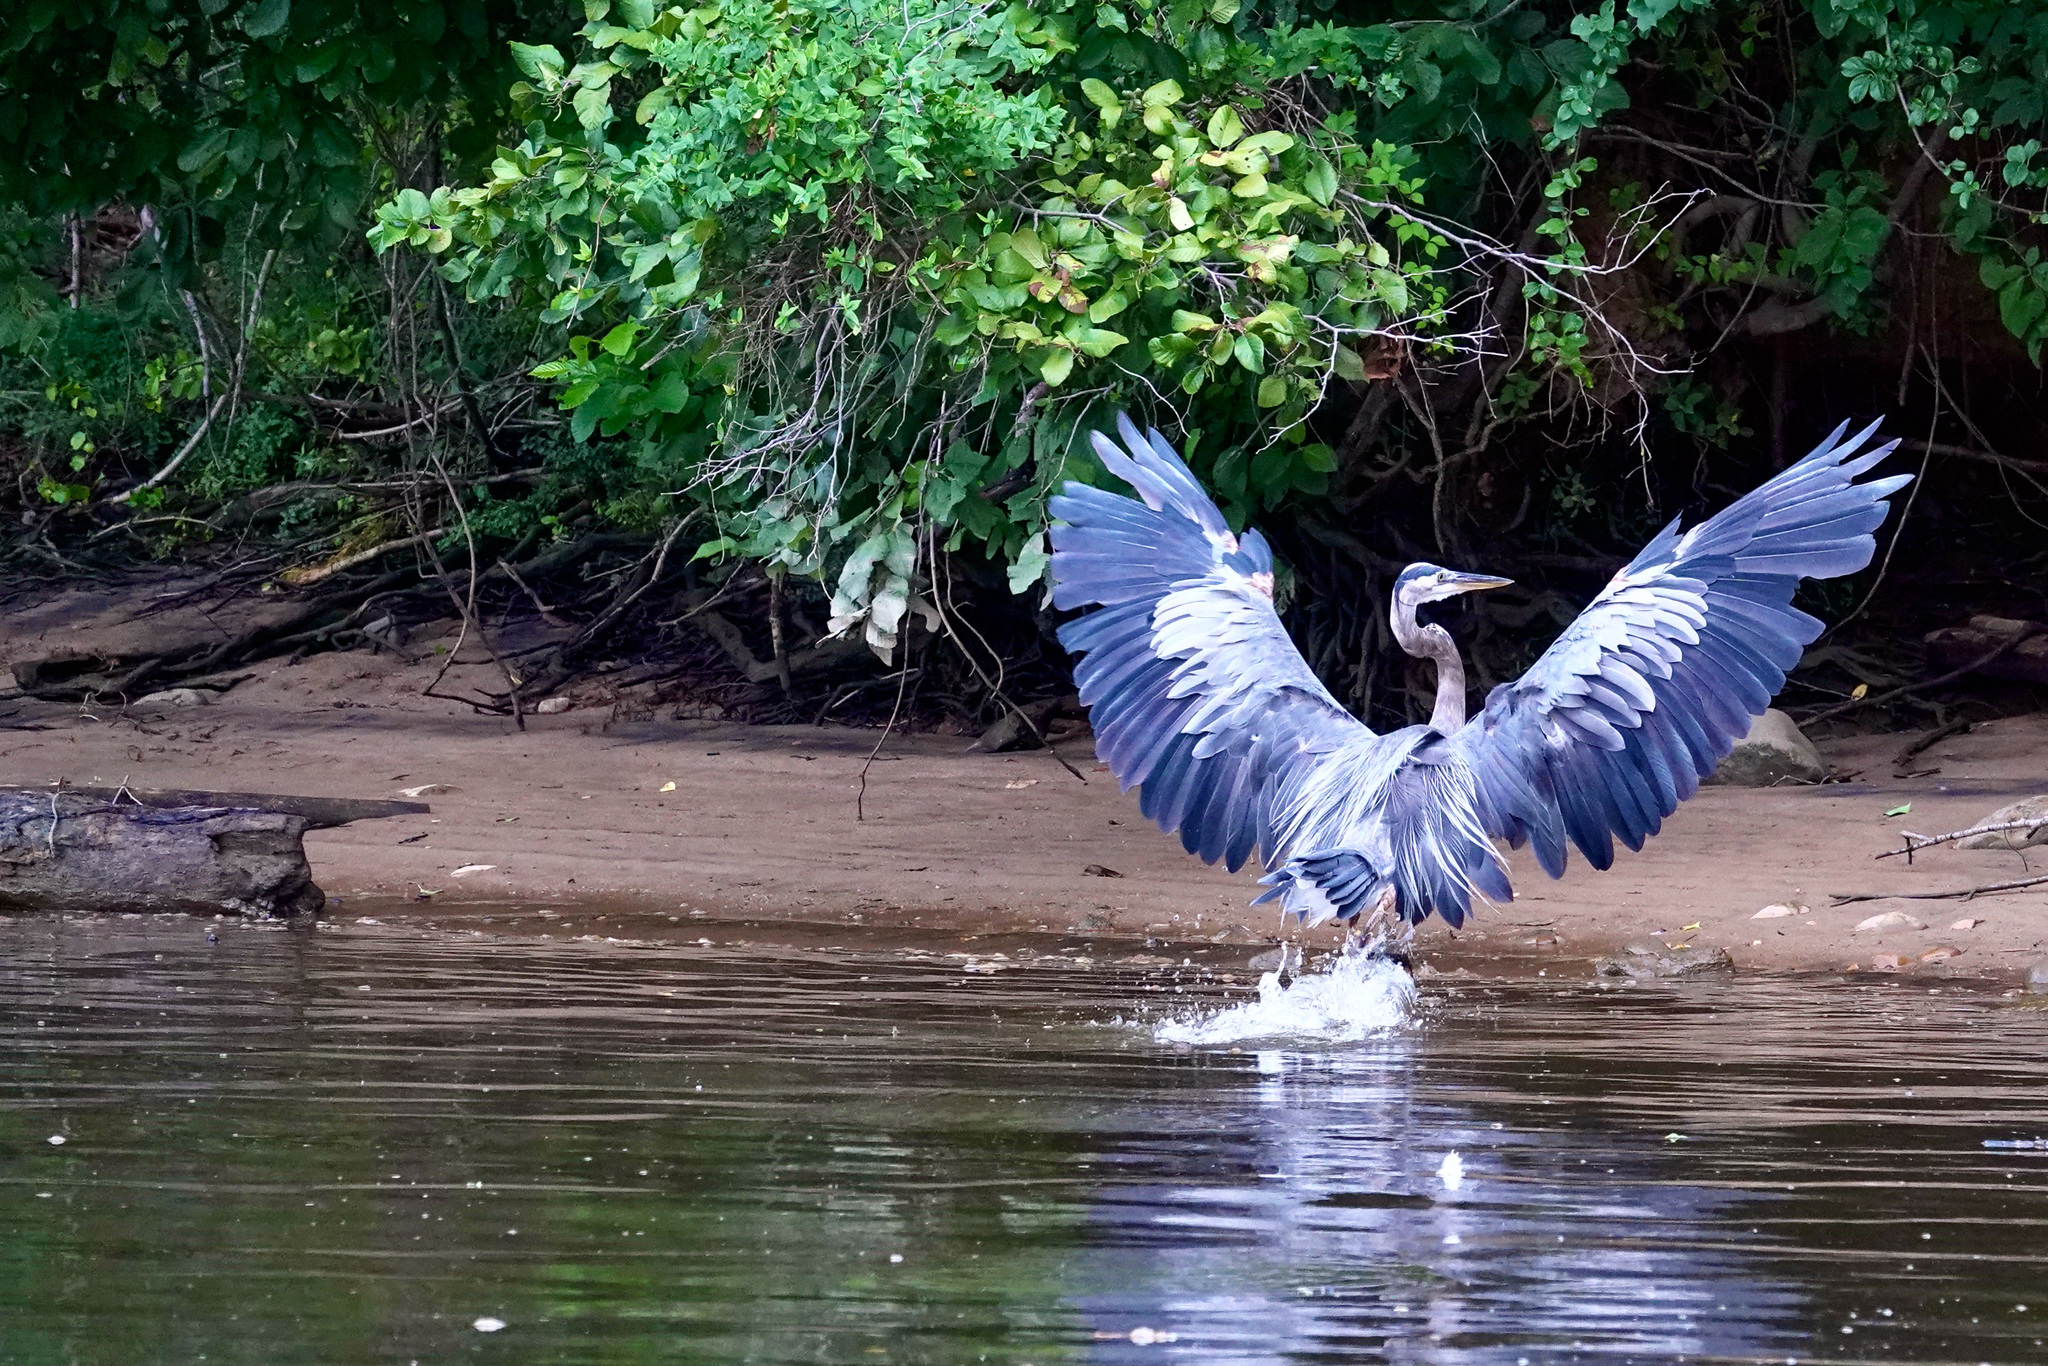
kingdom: Animalia
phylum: Chordata
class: Aves
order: Pelecaniformes
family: Ardeidae
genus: Ardea
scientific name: Ardea herodias
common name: Great blue heron
